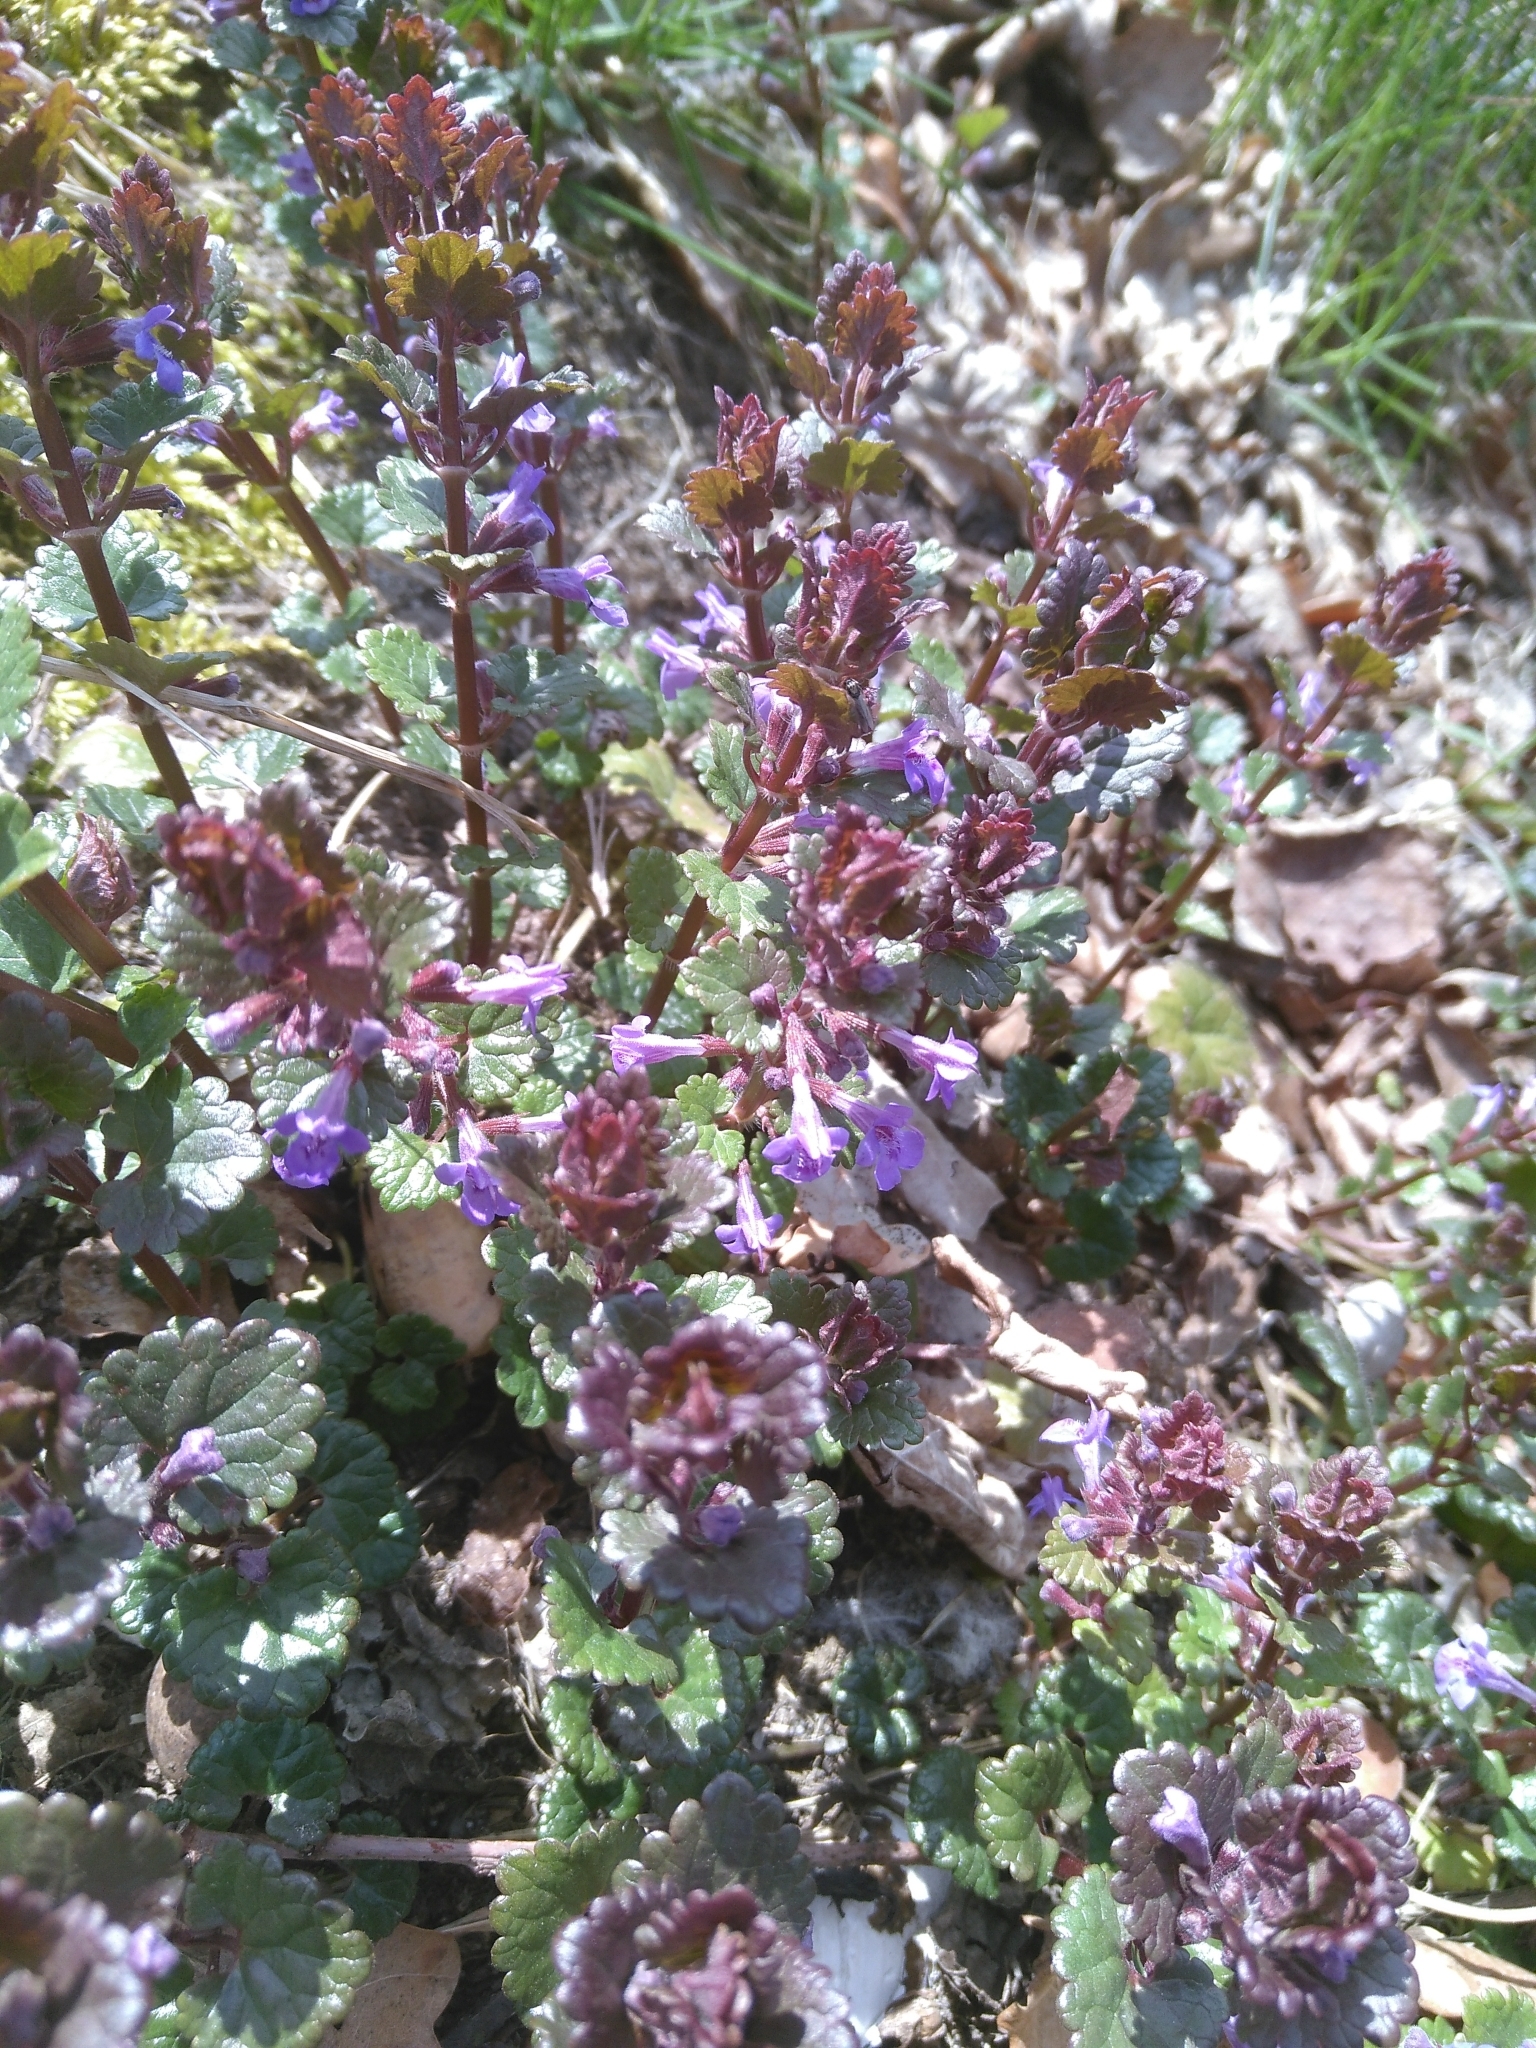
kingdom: Plantae
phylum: Tracheophyta
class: Magnoliopsida
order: Lamiales
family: Lamiaceae
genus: Glechoma
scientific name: Glechoma hederacea
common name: Ground ivy
